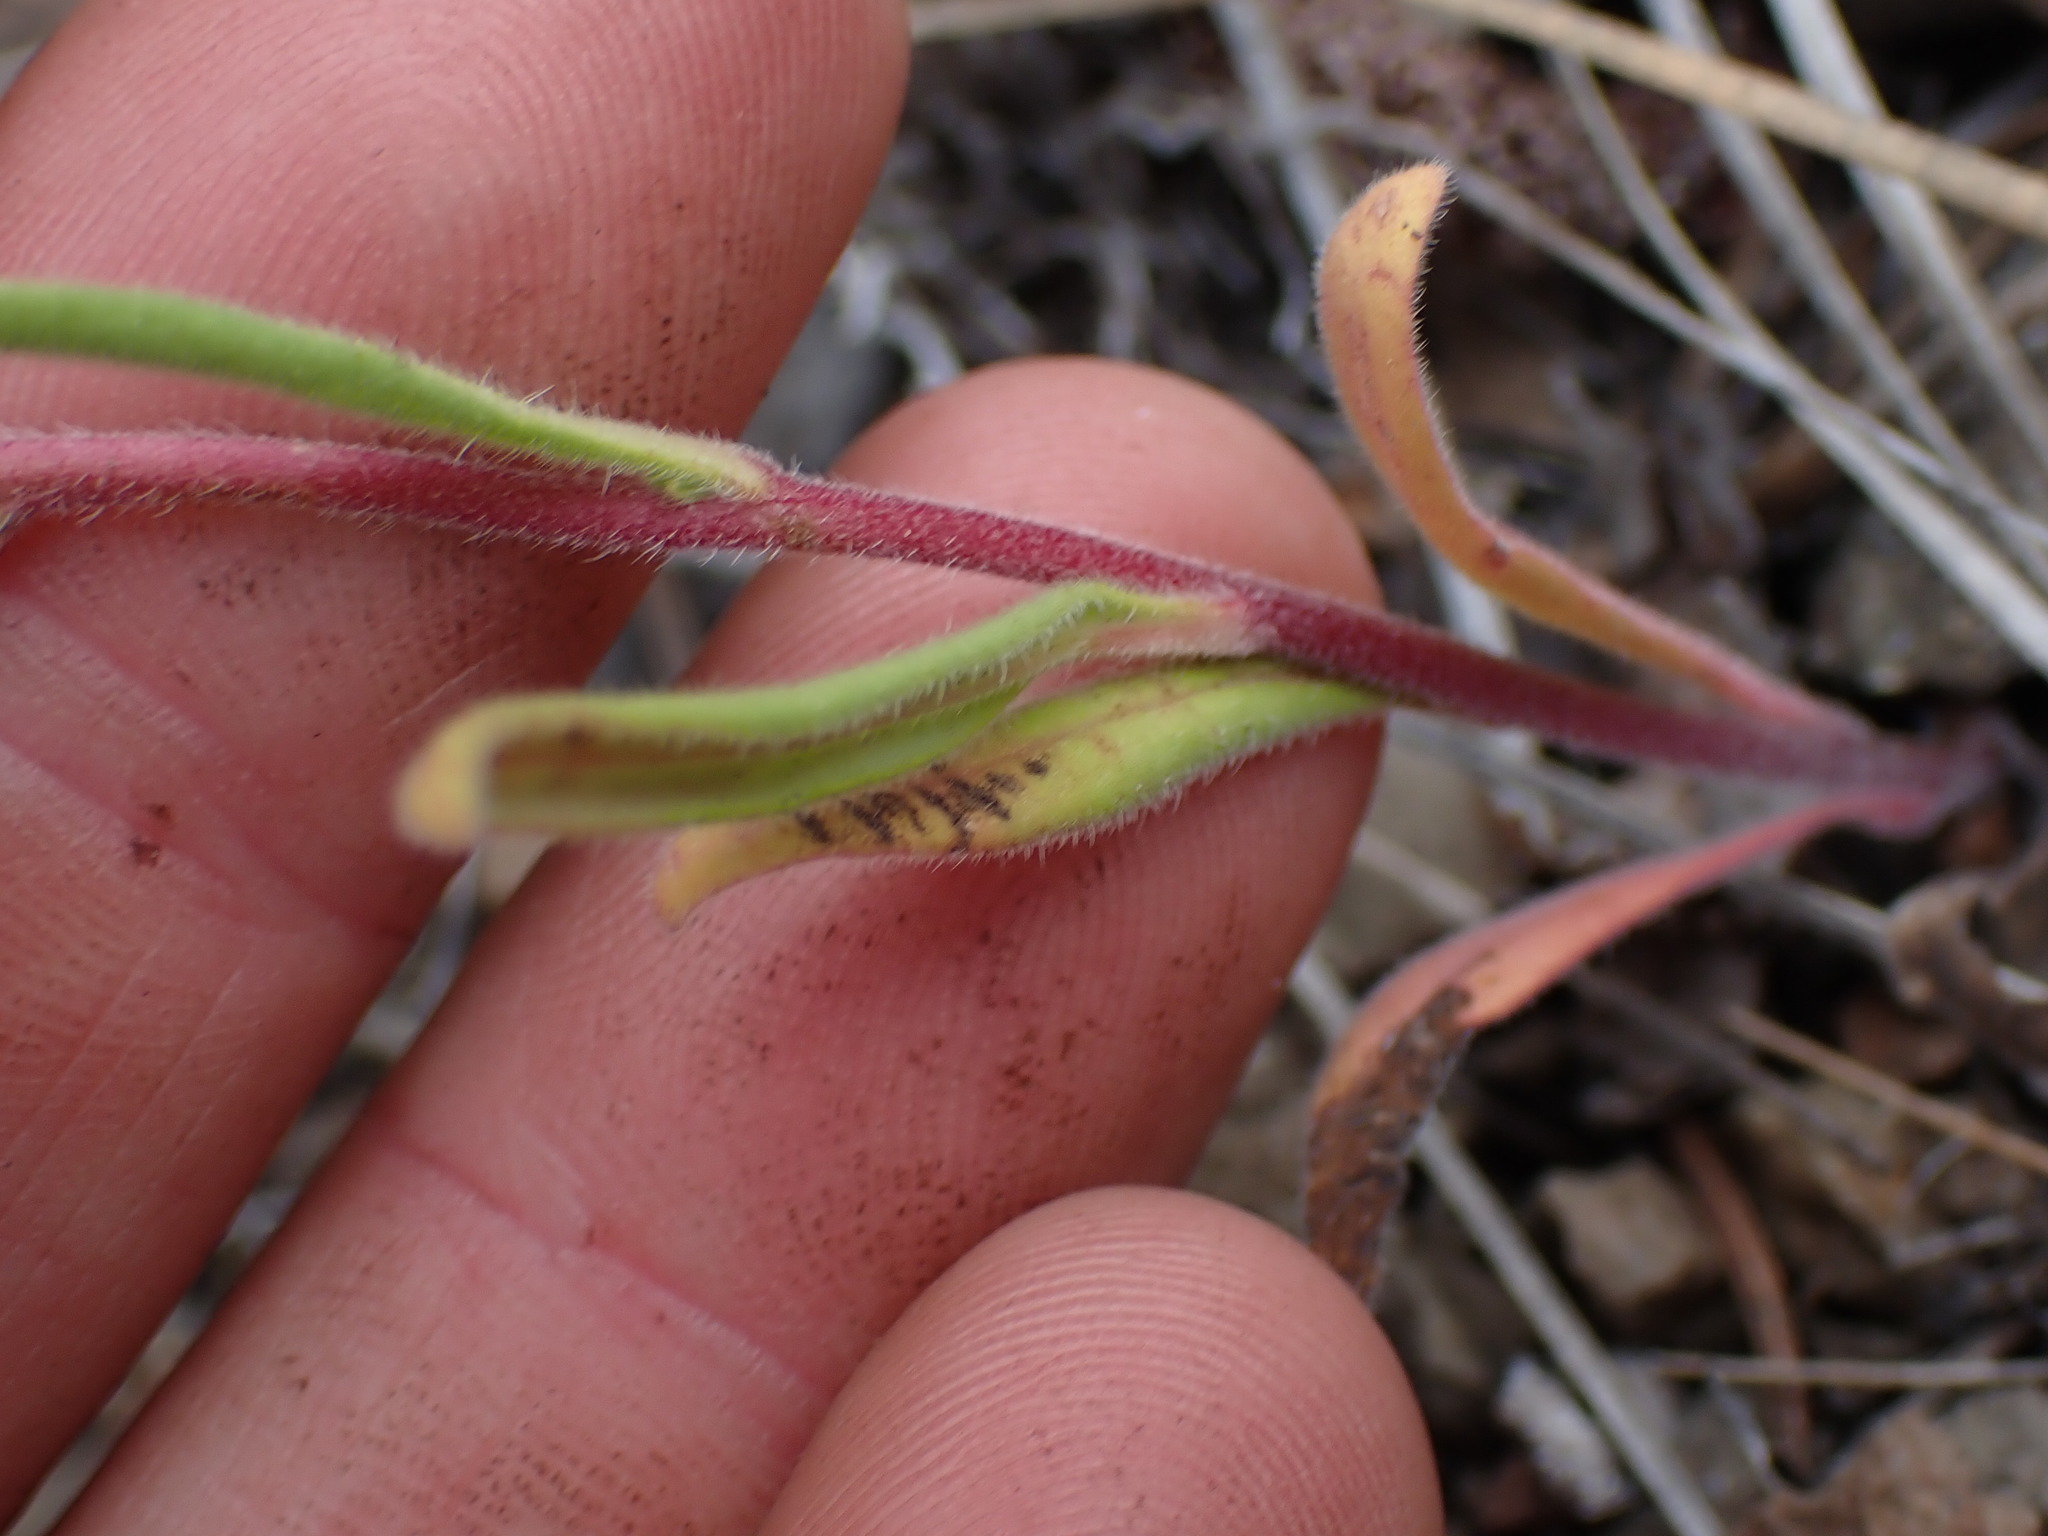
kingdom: Plantae
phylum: Tracheophyta
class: Magnoliopsida
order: Boraginales
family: Hydrophyllaceae
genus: Phacelia
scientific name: Phacelia linearis
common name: Linear-leaved phacelia
